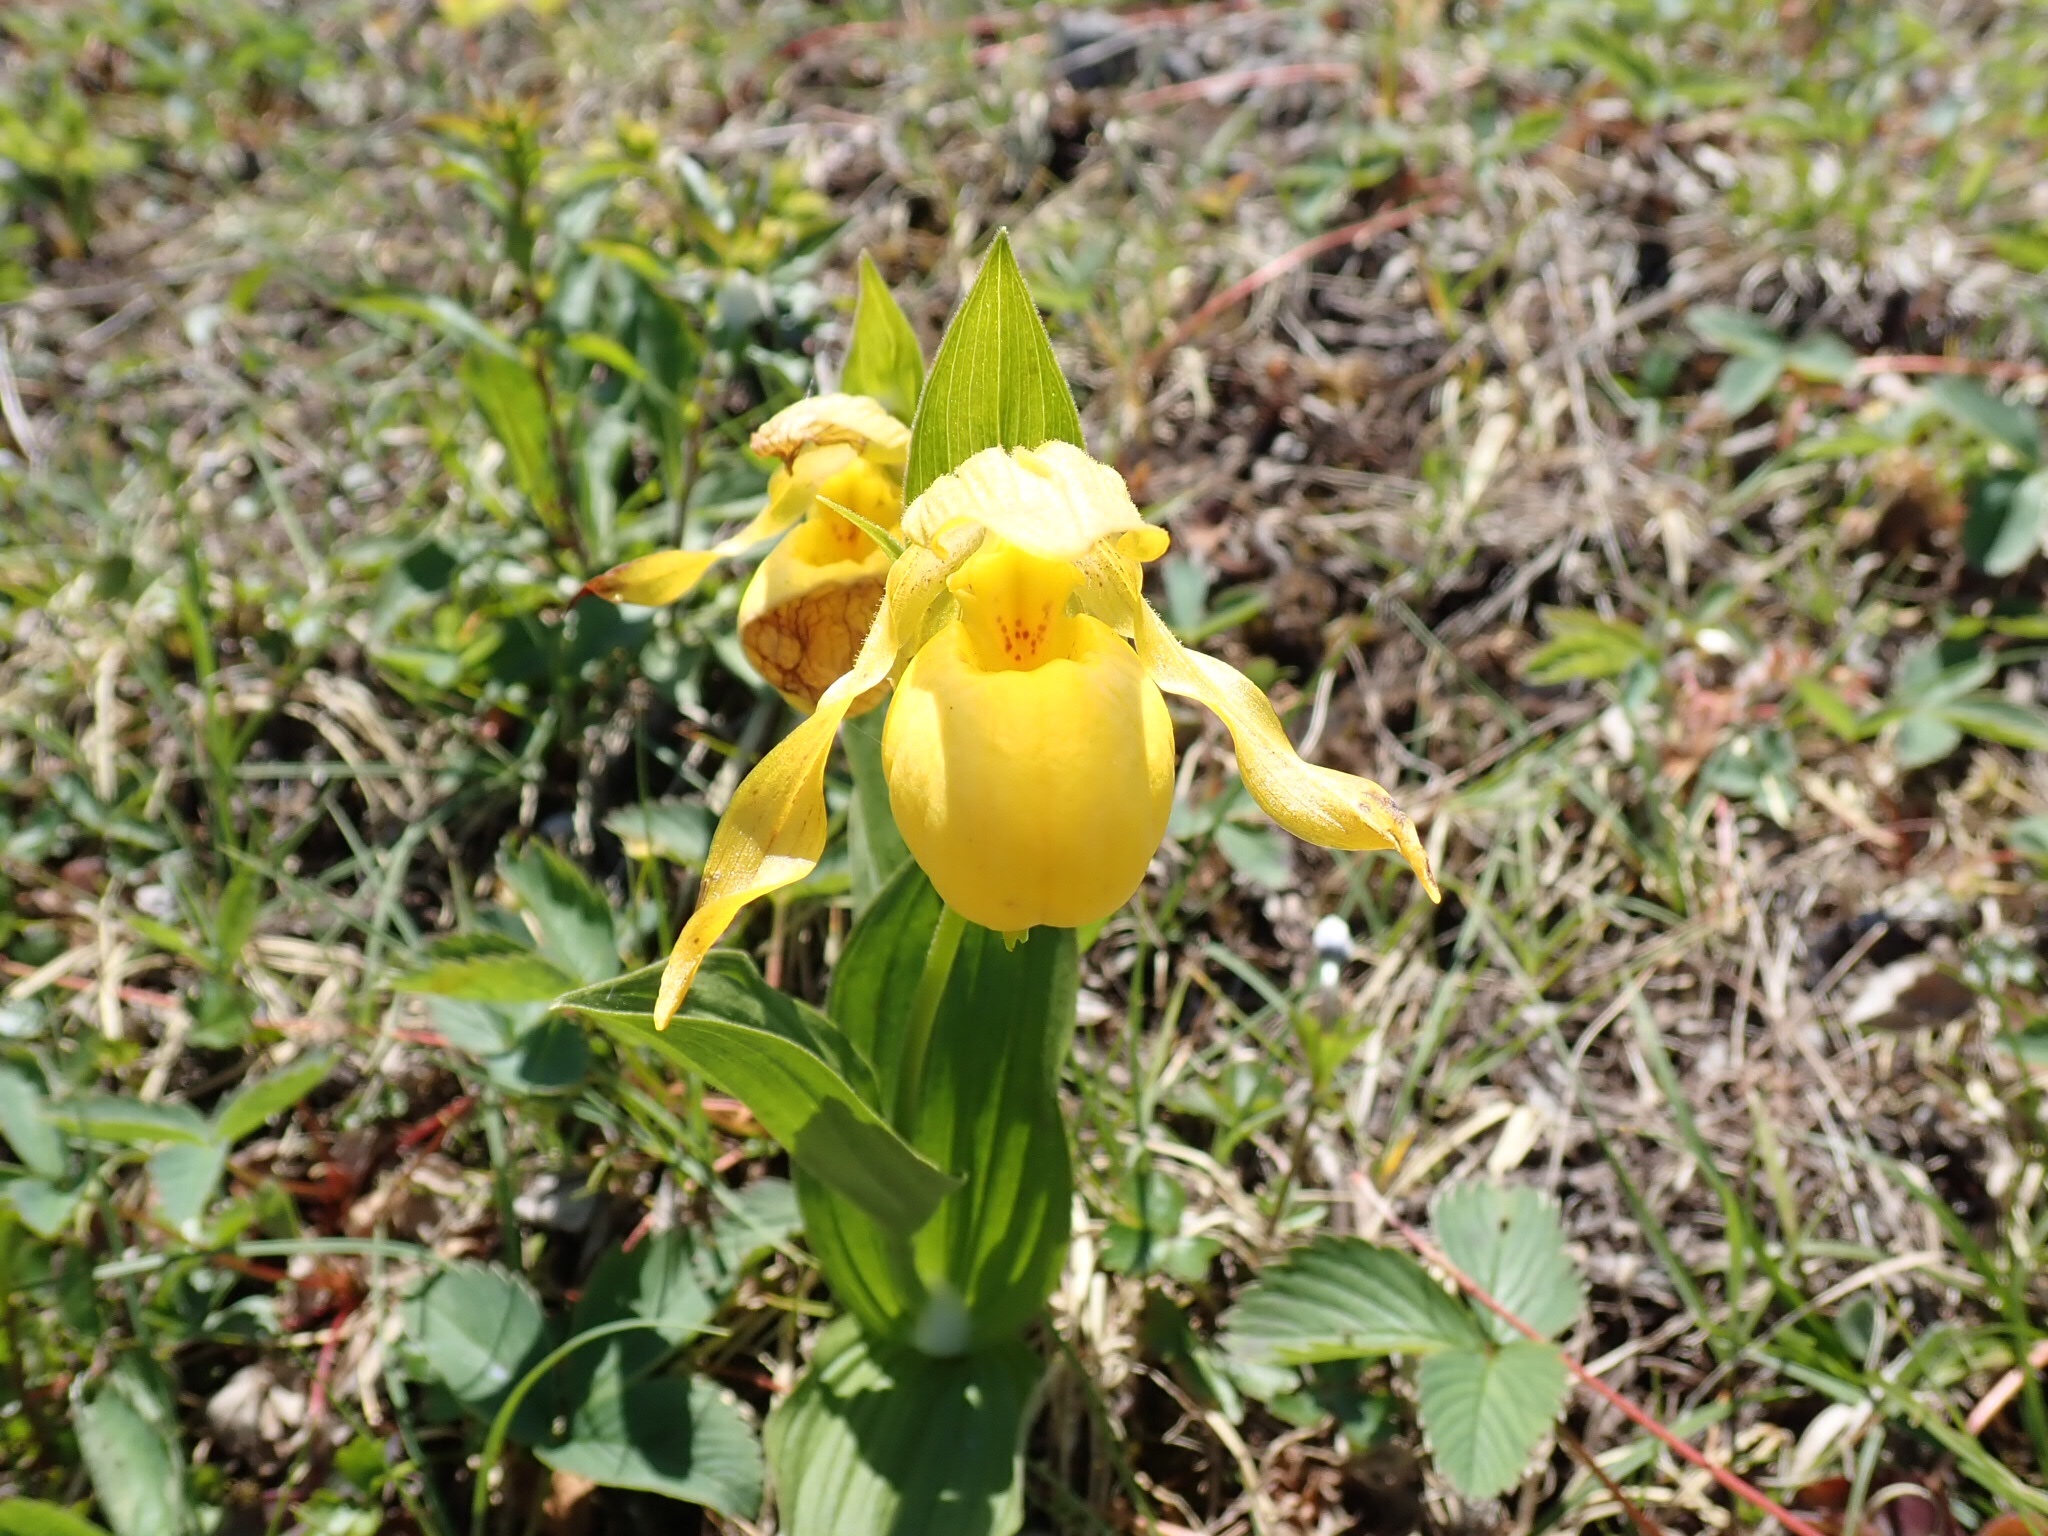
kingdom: Plantae
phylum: Tracheophyta
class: Liliopsida
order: Asparagales
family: Orchidaceae
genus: Cypripedium
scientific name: Cypripedium parviflorum
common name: American yellow lady's-slipper
